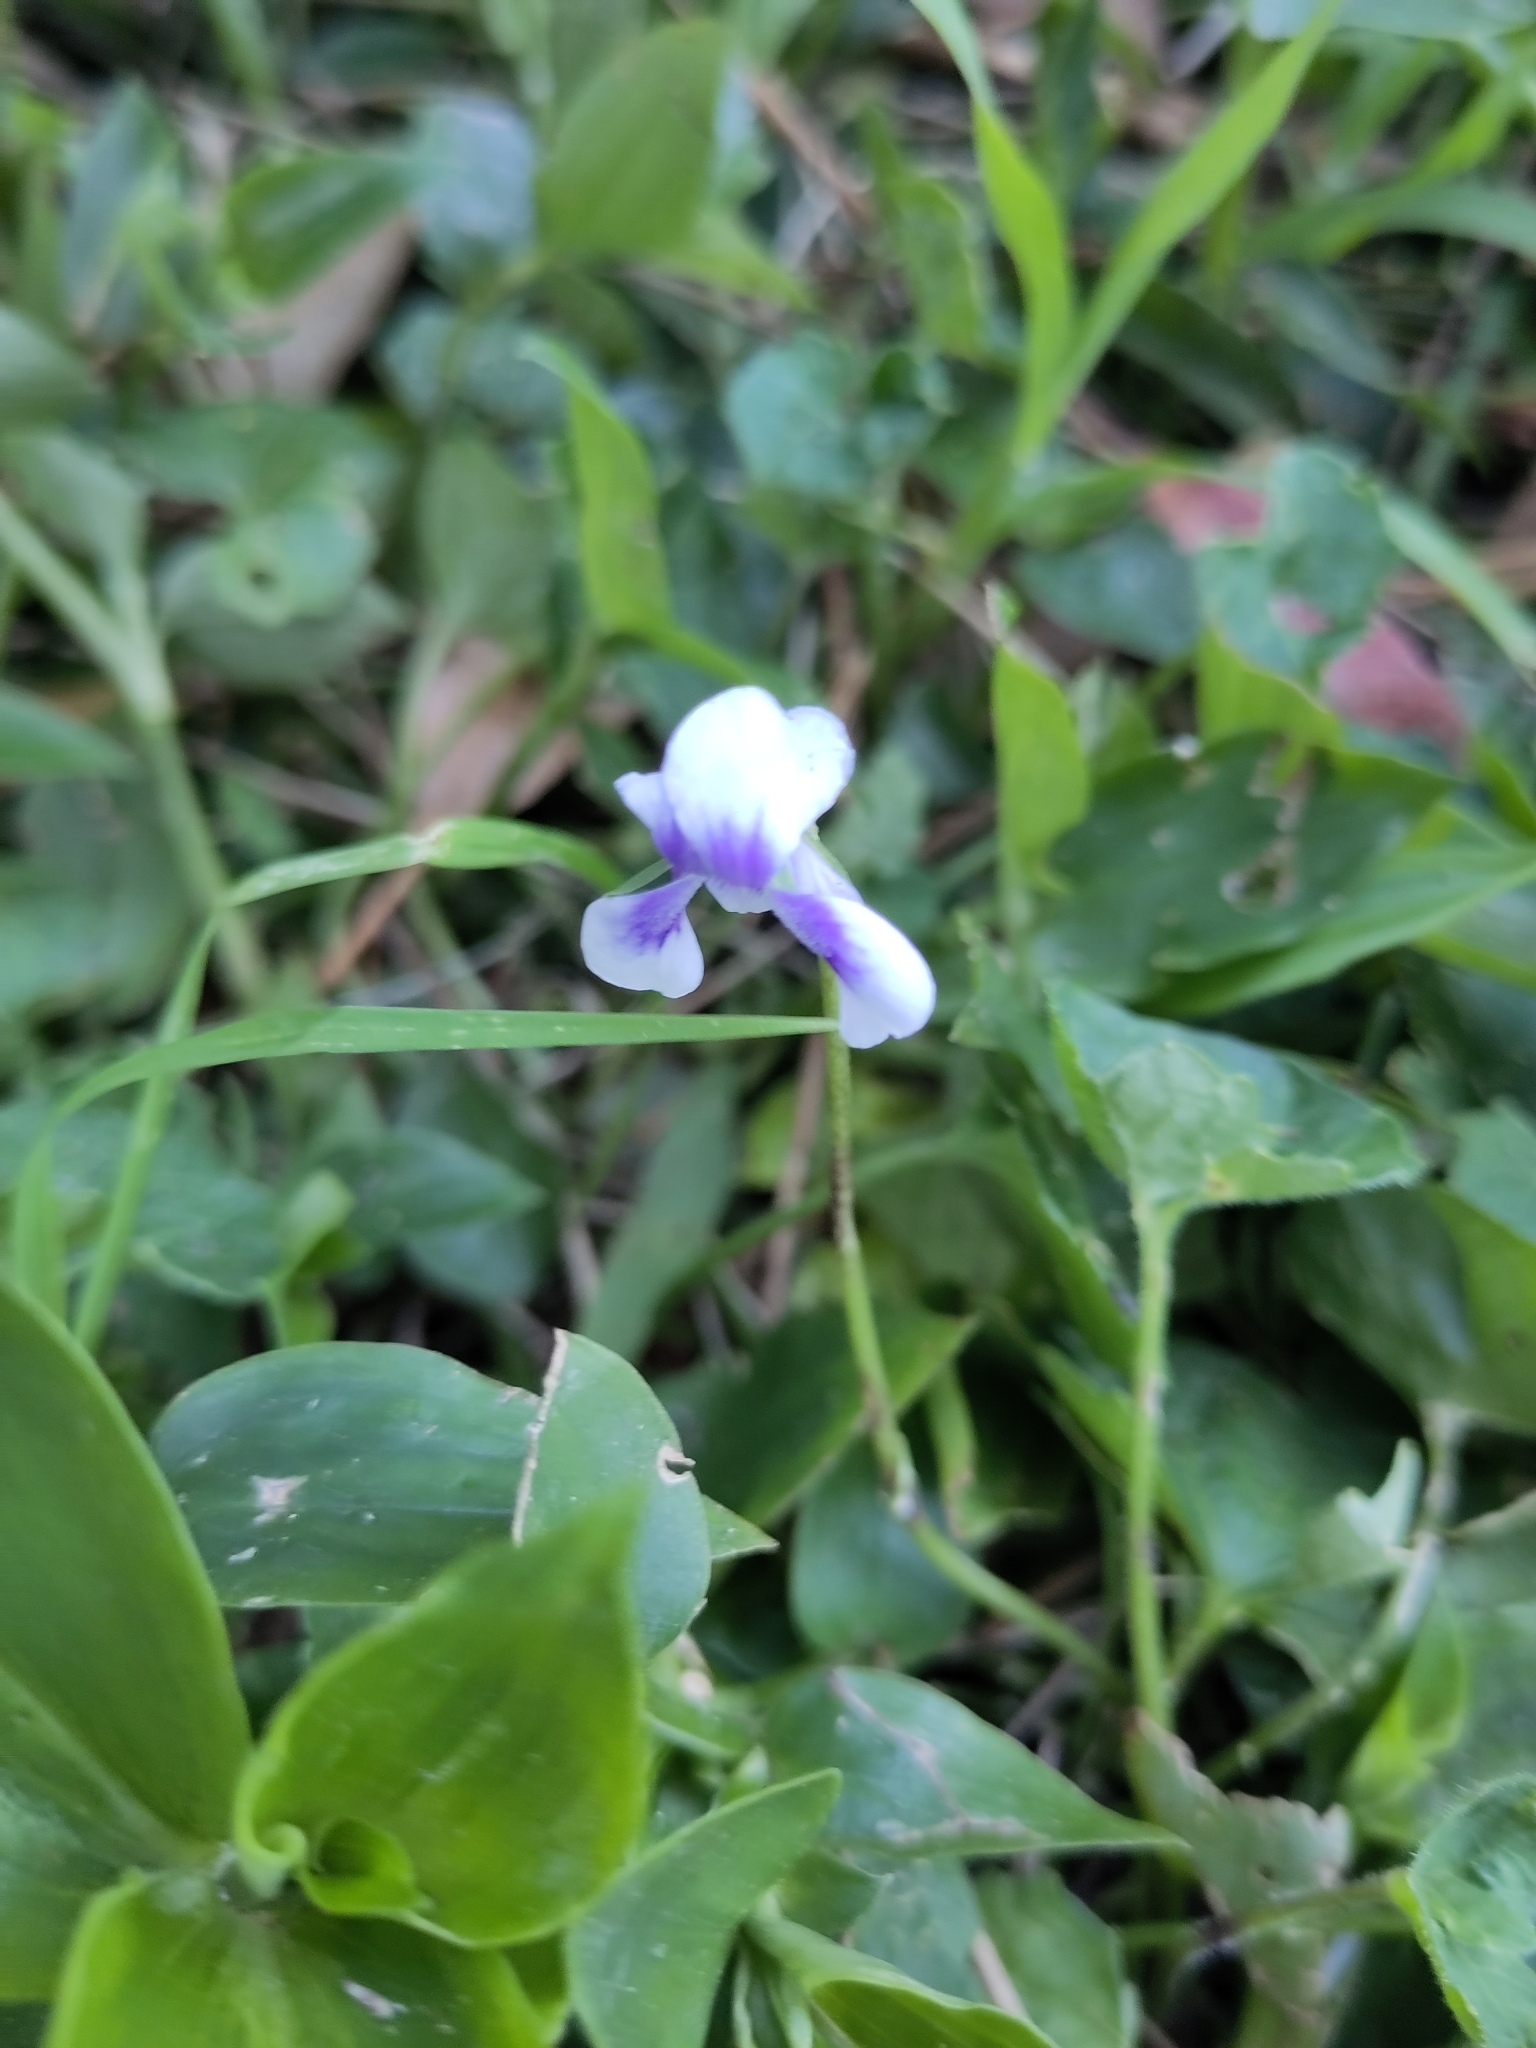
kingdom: Plantae
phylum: Tracheophyta
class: Magnoliopsida
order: Malpighiales
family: Violaceae
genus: Viola
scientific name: Viola banksii
